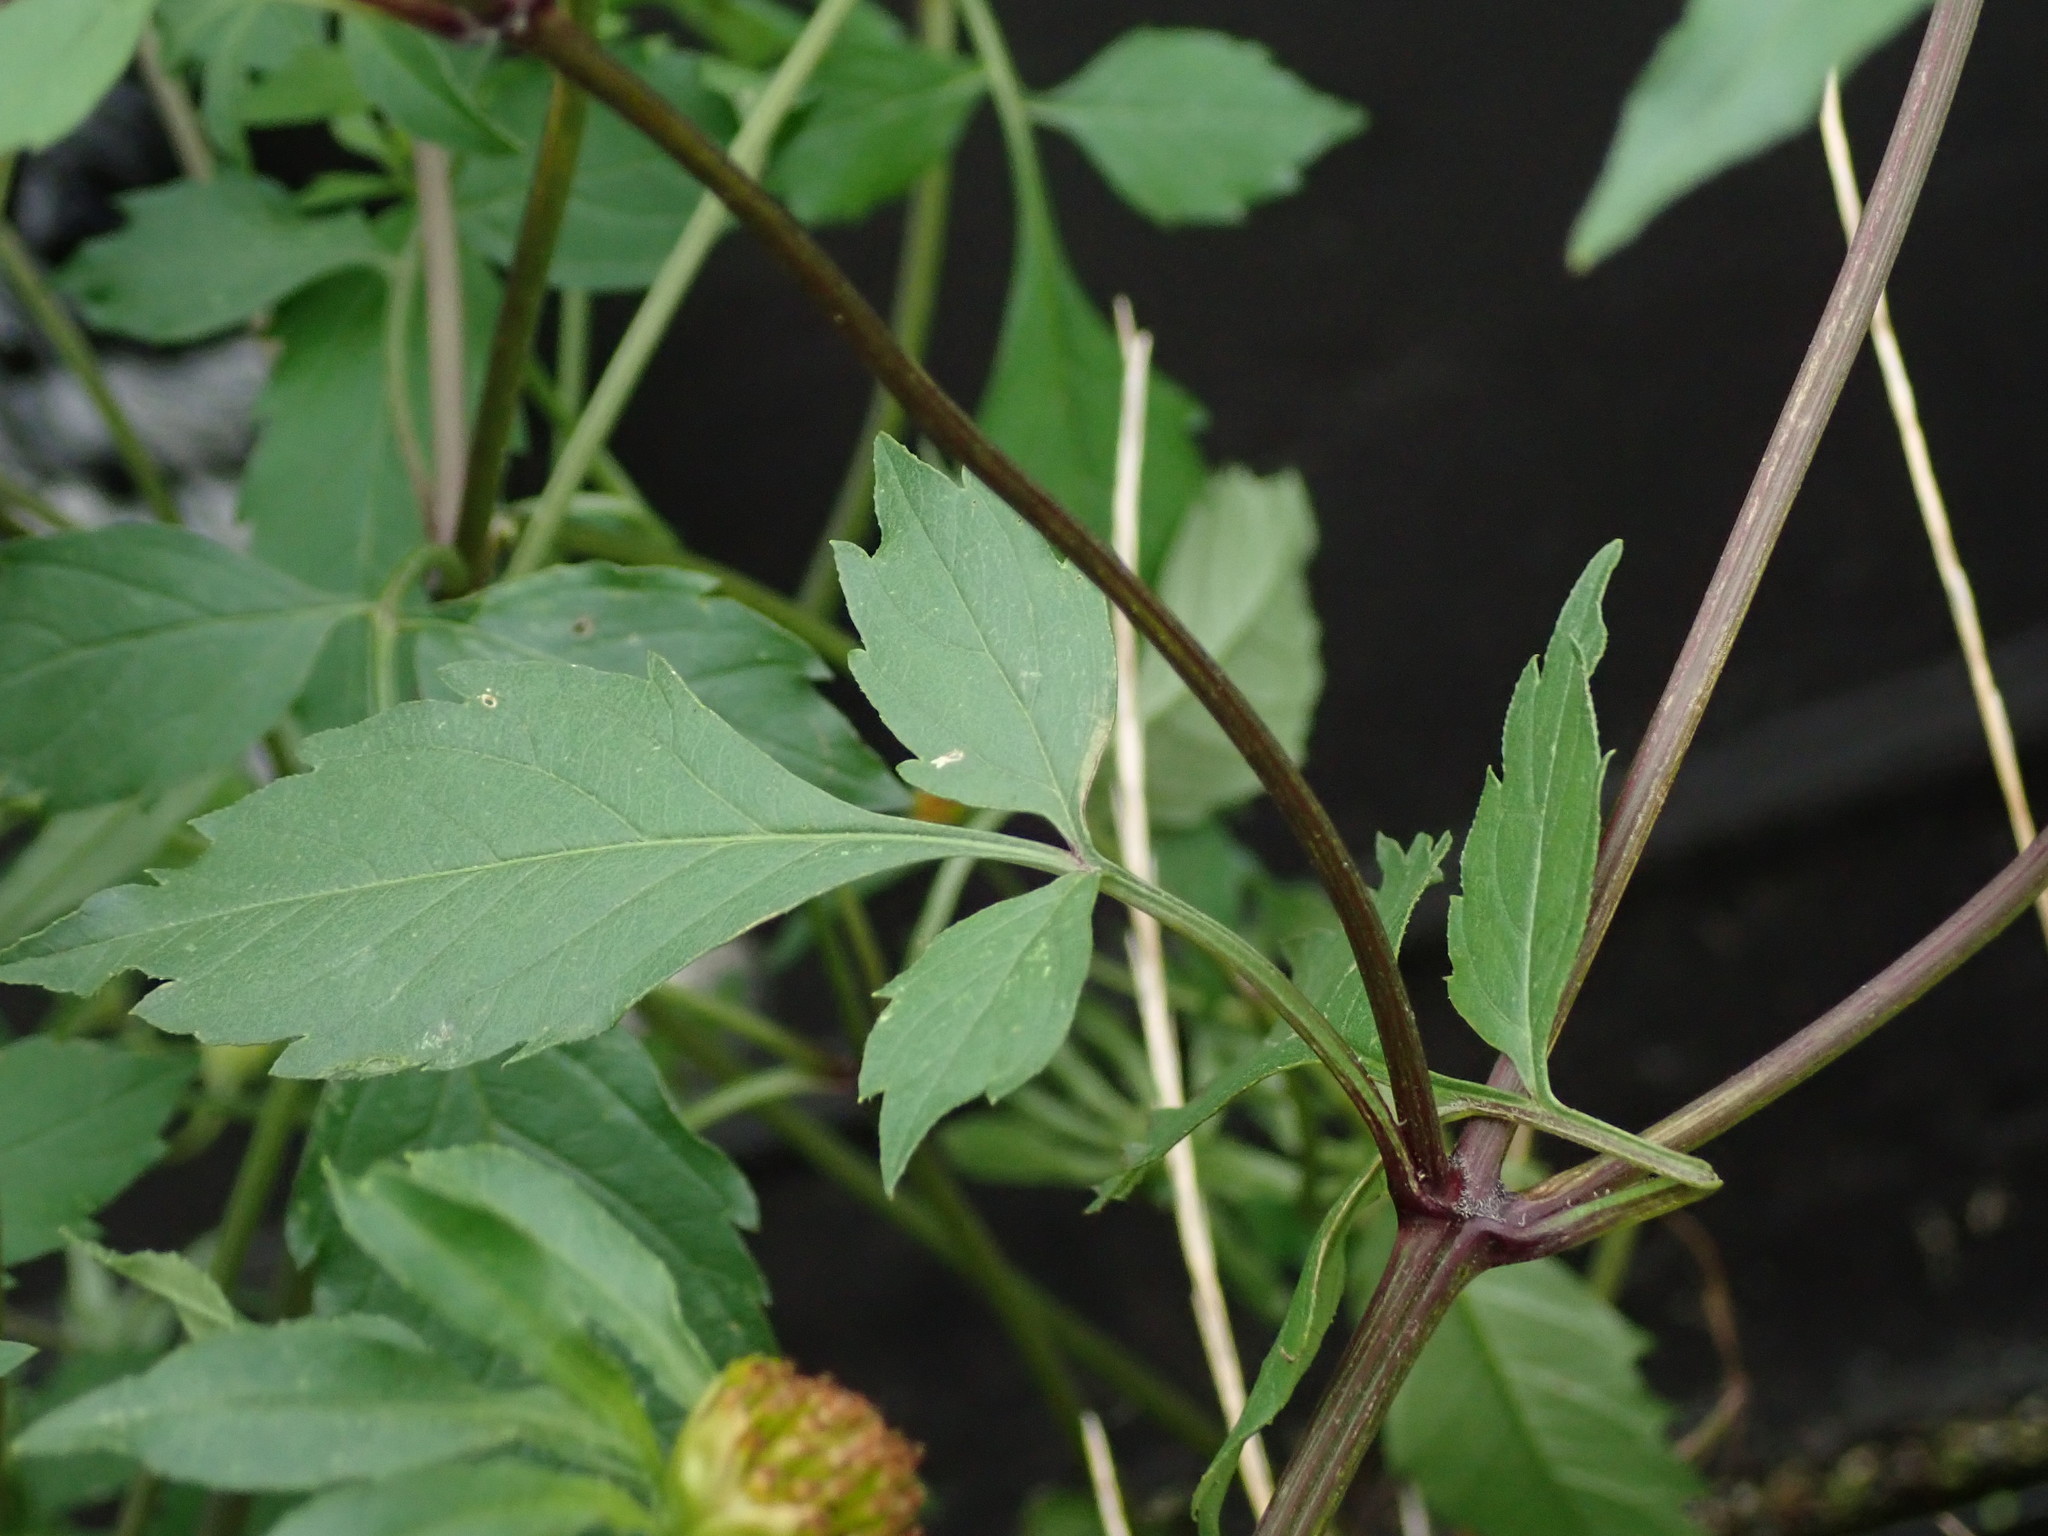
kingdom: Plantae
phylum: Tracheophyta
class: Magnoliopsida
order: Asterales
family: Asteraceae
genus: Bidens
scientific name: Bidens frondosa
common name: Beggarticks
